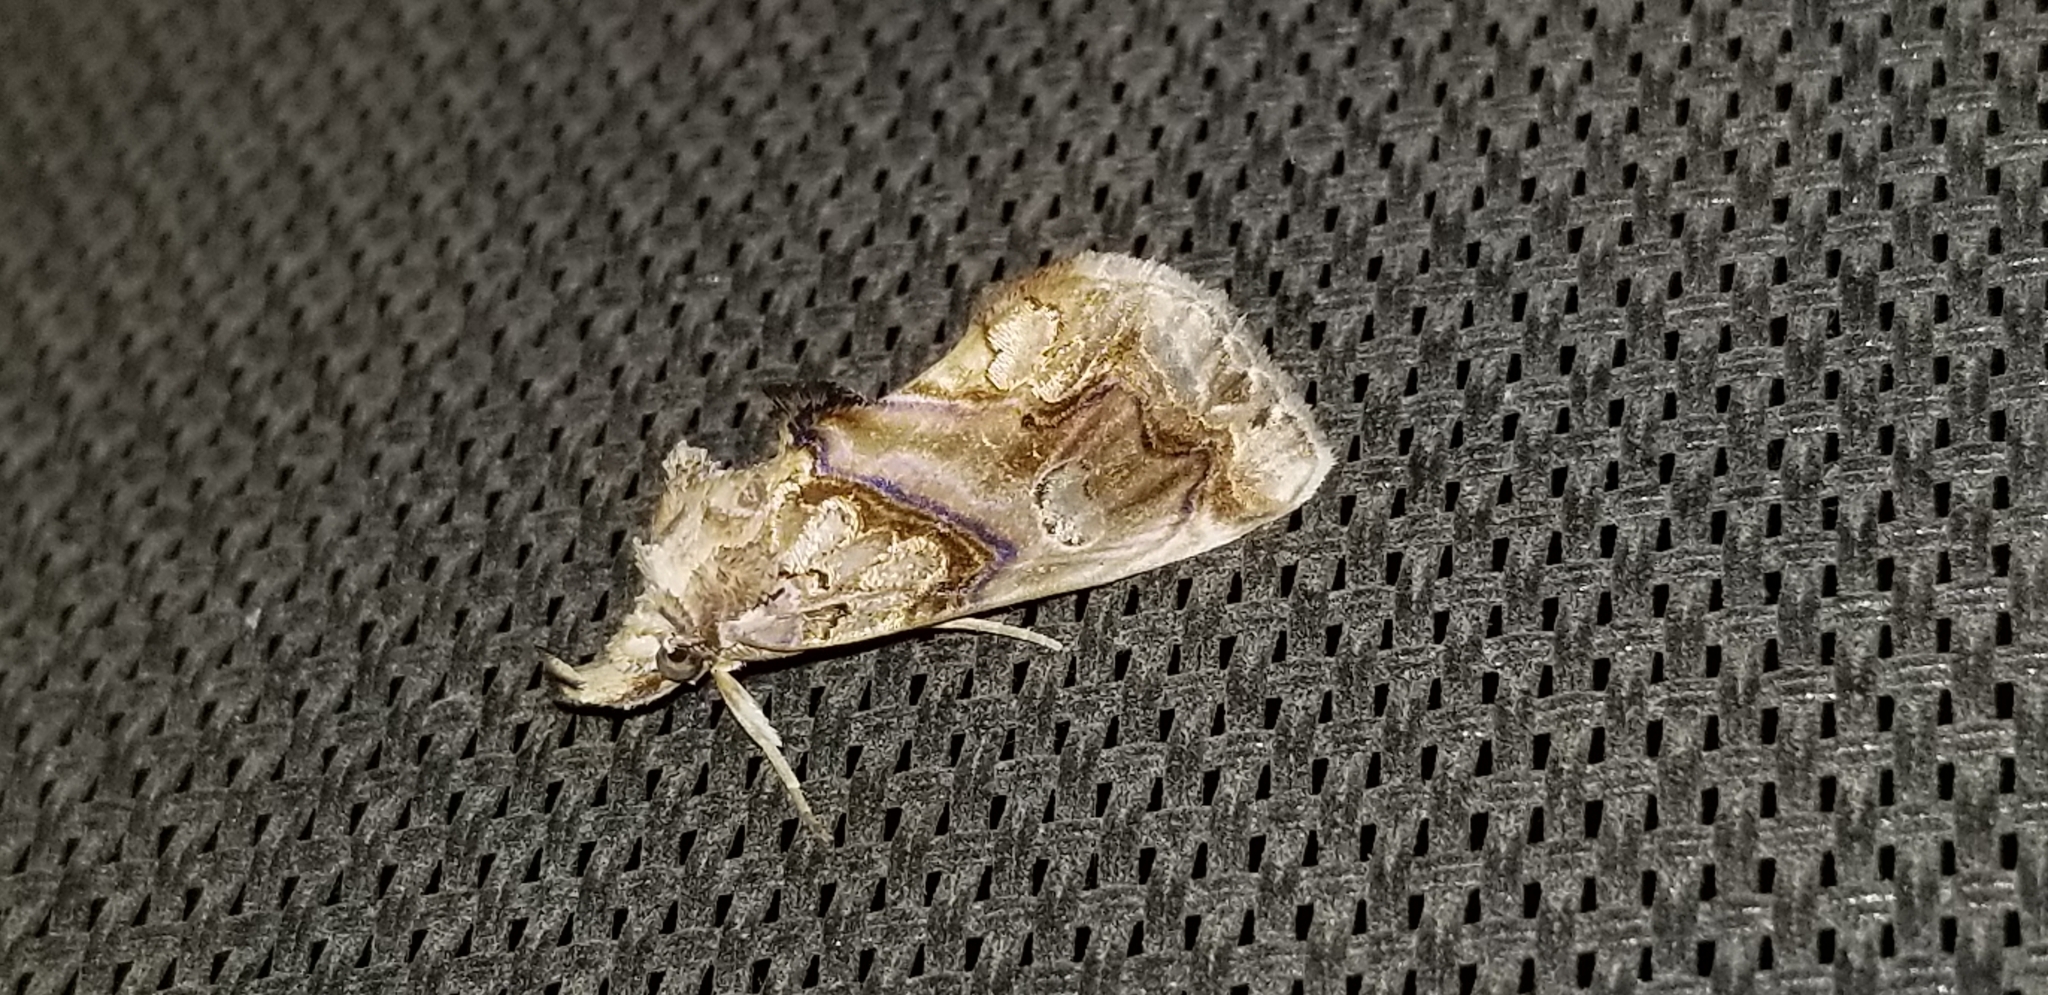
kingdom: Animalia
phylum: Arthropoda
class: Insecta
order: Lepidoptera
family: Erebidae
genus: Plusiodonta
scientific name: Plusiodonta compressipalpis
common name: Moonseed moth
